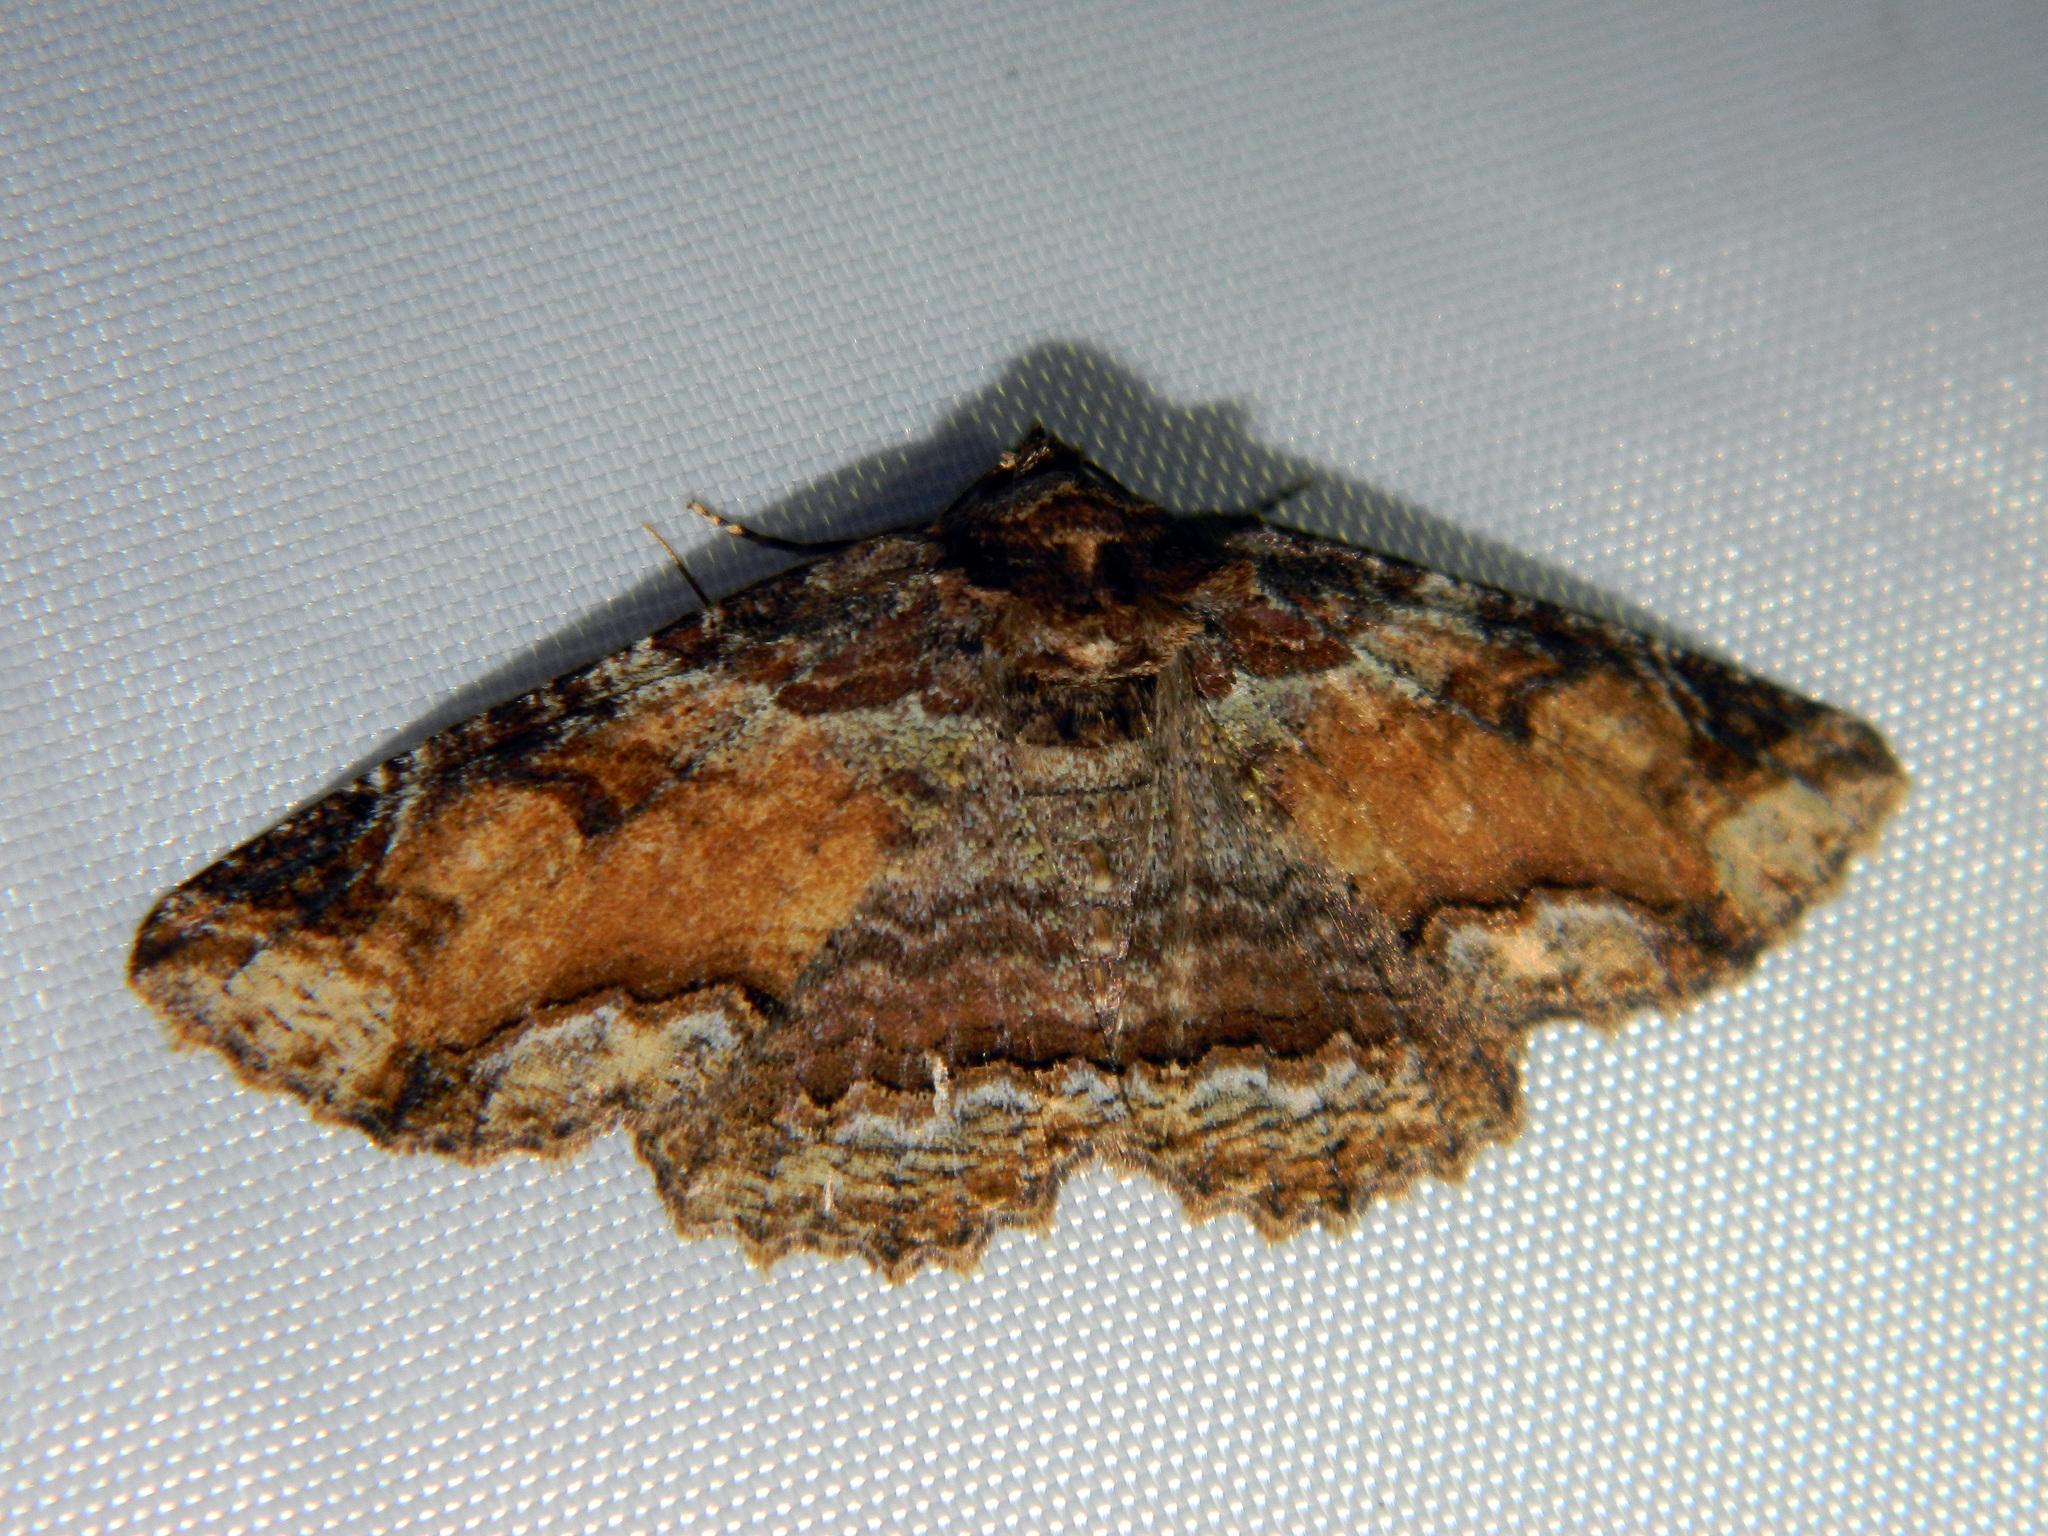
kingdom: Animalia
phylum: Arthropoda
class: Insecta
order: Lepidoptera
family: Erebidae
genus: Zale
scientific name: Zale minerea
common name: Colorful zale moth
